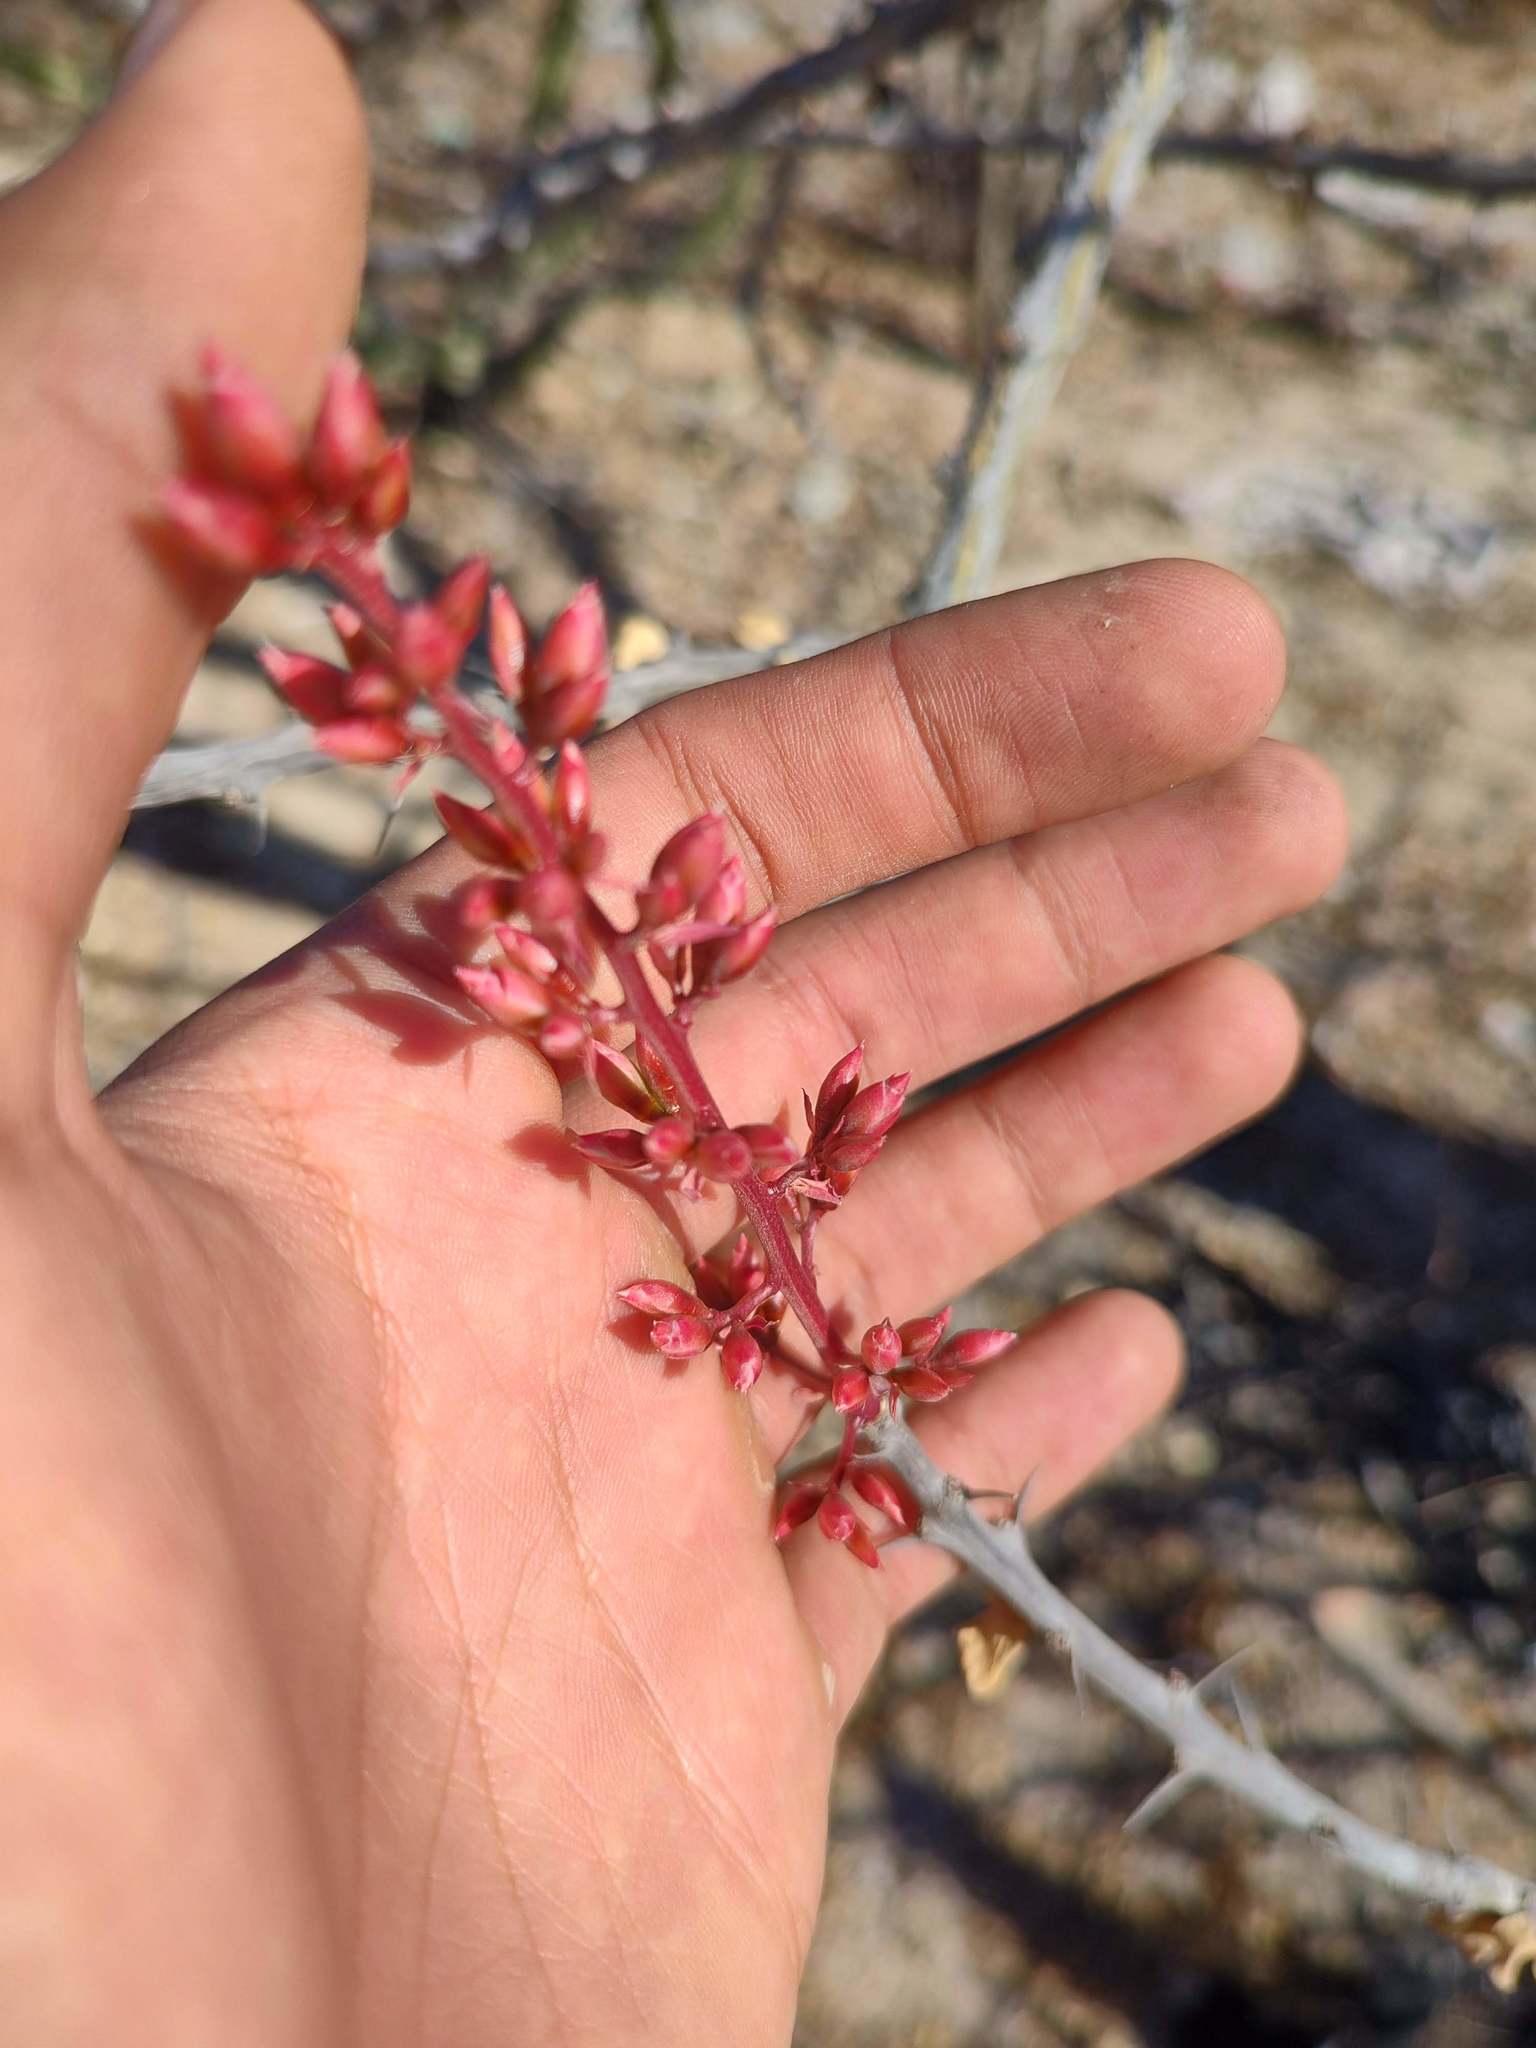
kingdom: Plantae
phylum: Tracheophyta
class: Magnoliopsida
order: Ericales
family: Fouquieriaceae
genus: Fouquieria
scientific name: Fouquieria diguetii
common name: Adam's tree
